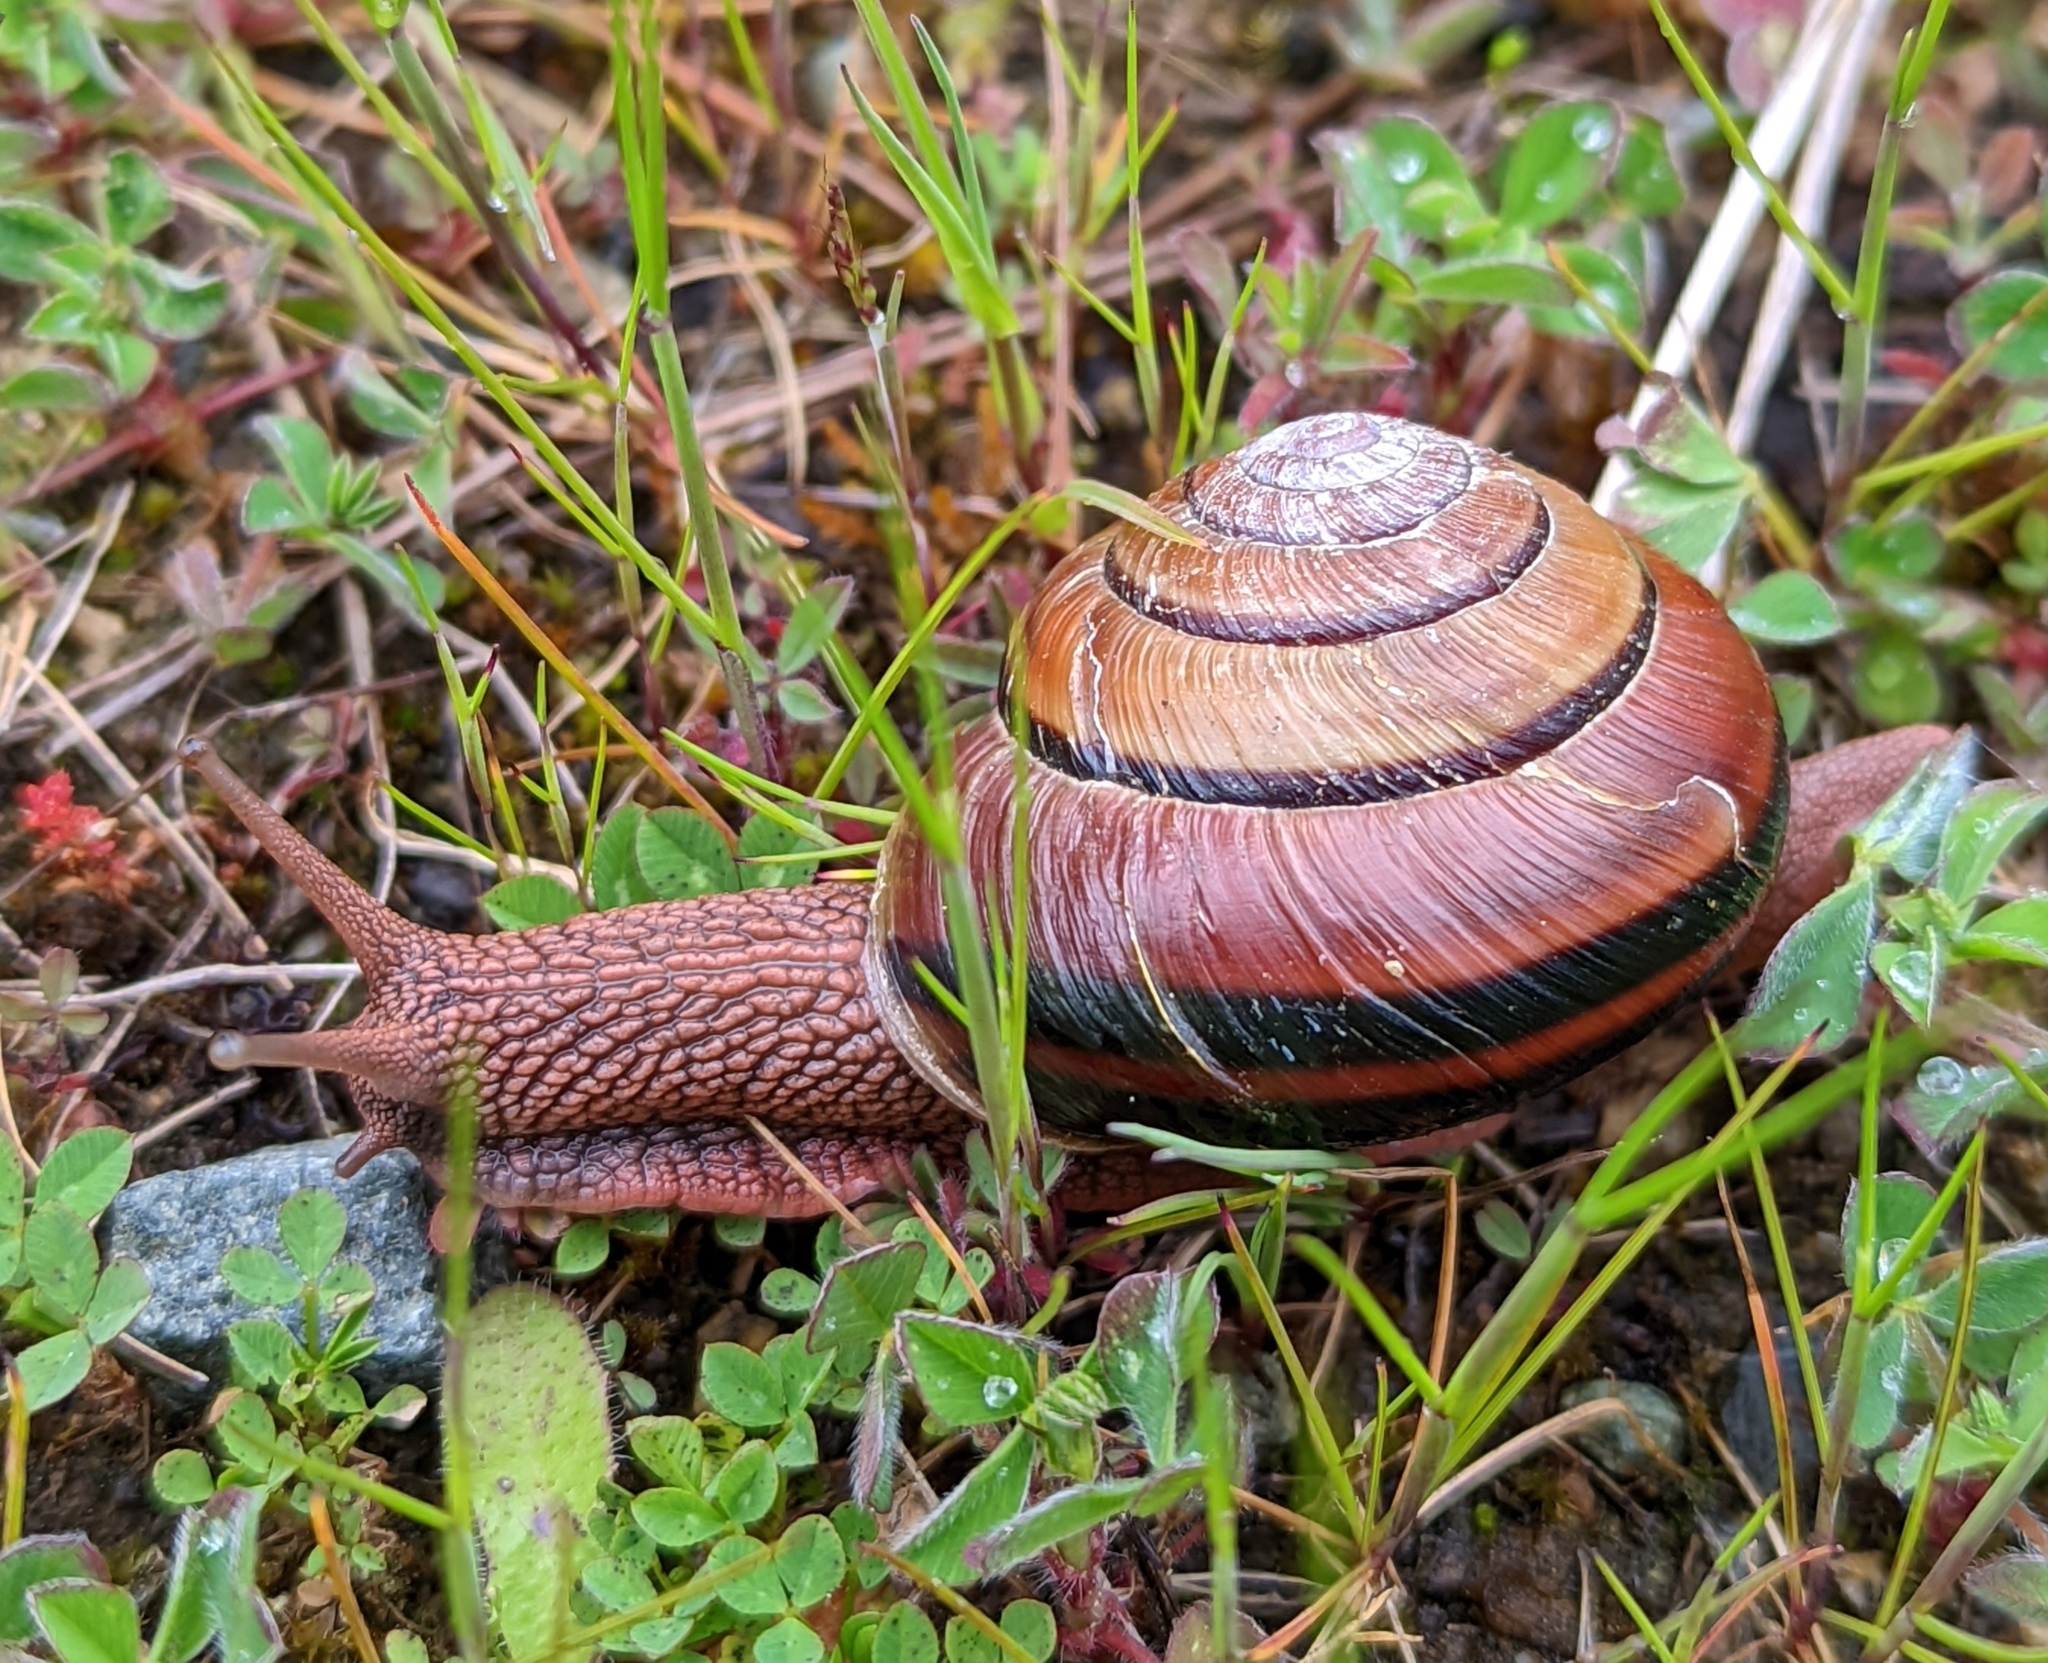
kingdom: Animalia
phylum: Mollusca
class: Gastropoda
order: Stylommatophora
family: Xanthonychidae
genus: Monadenia
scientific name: Monadenia fidelis
